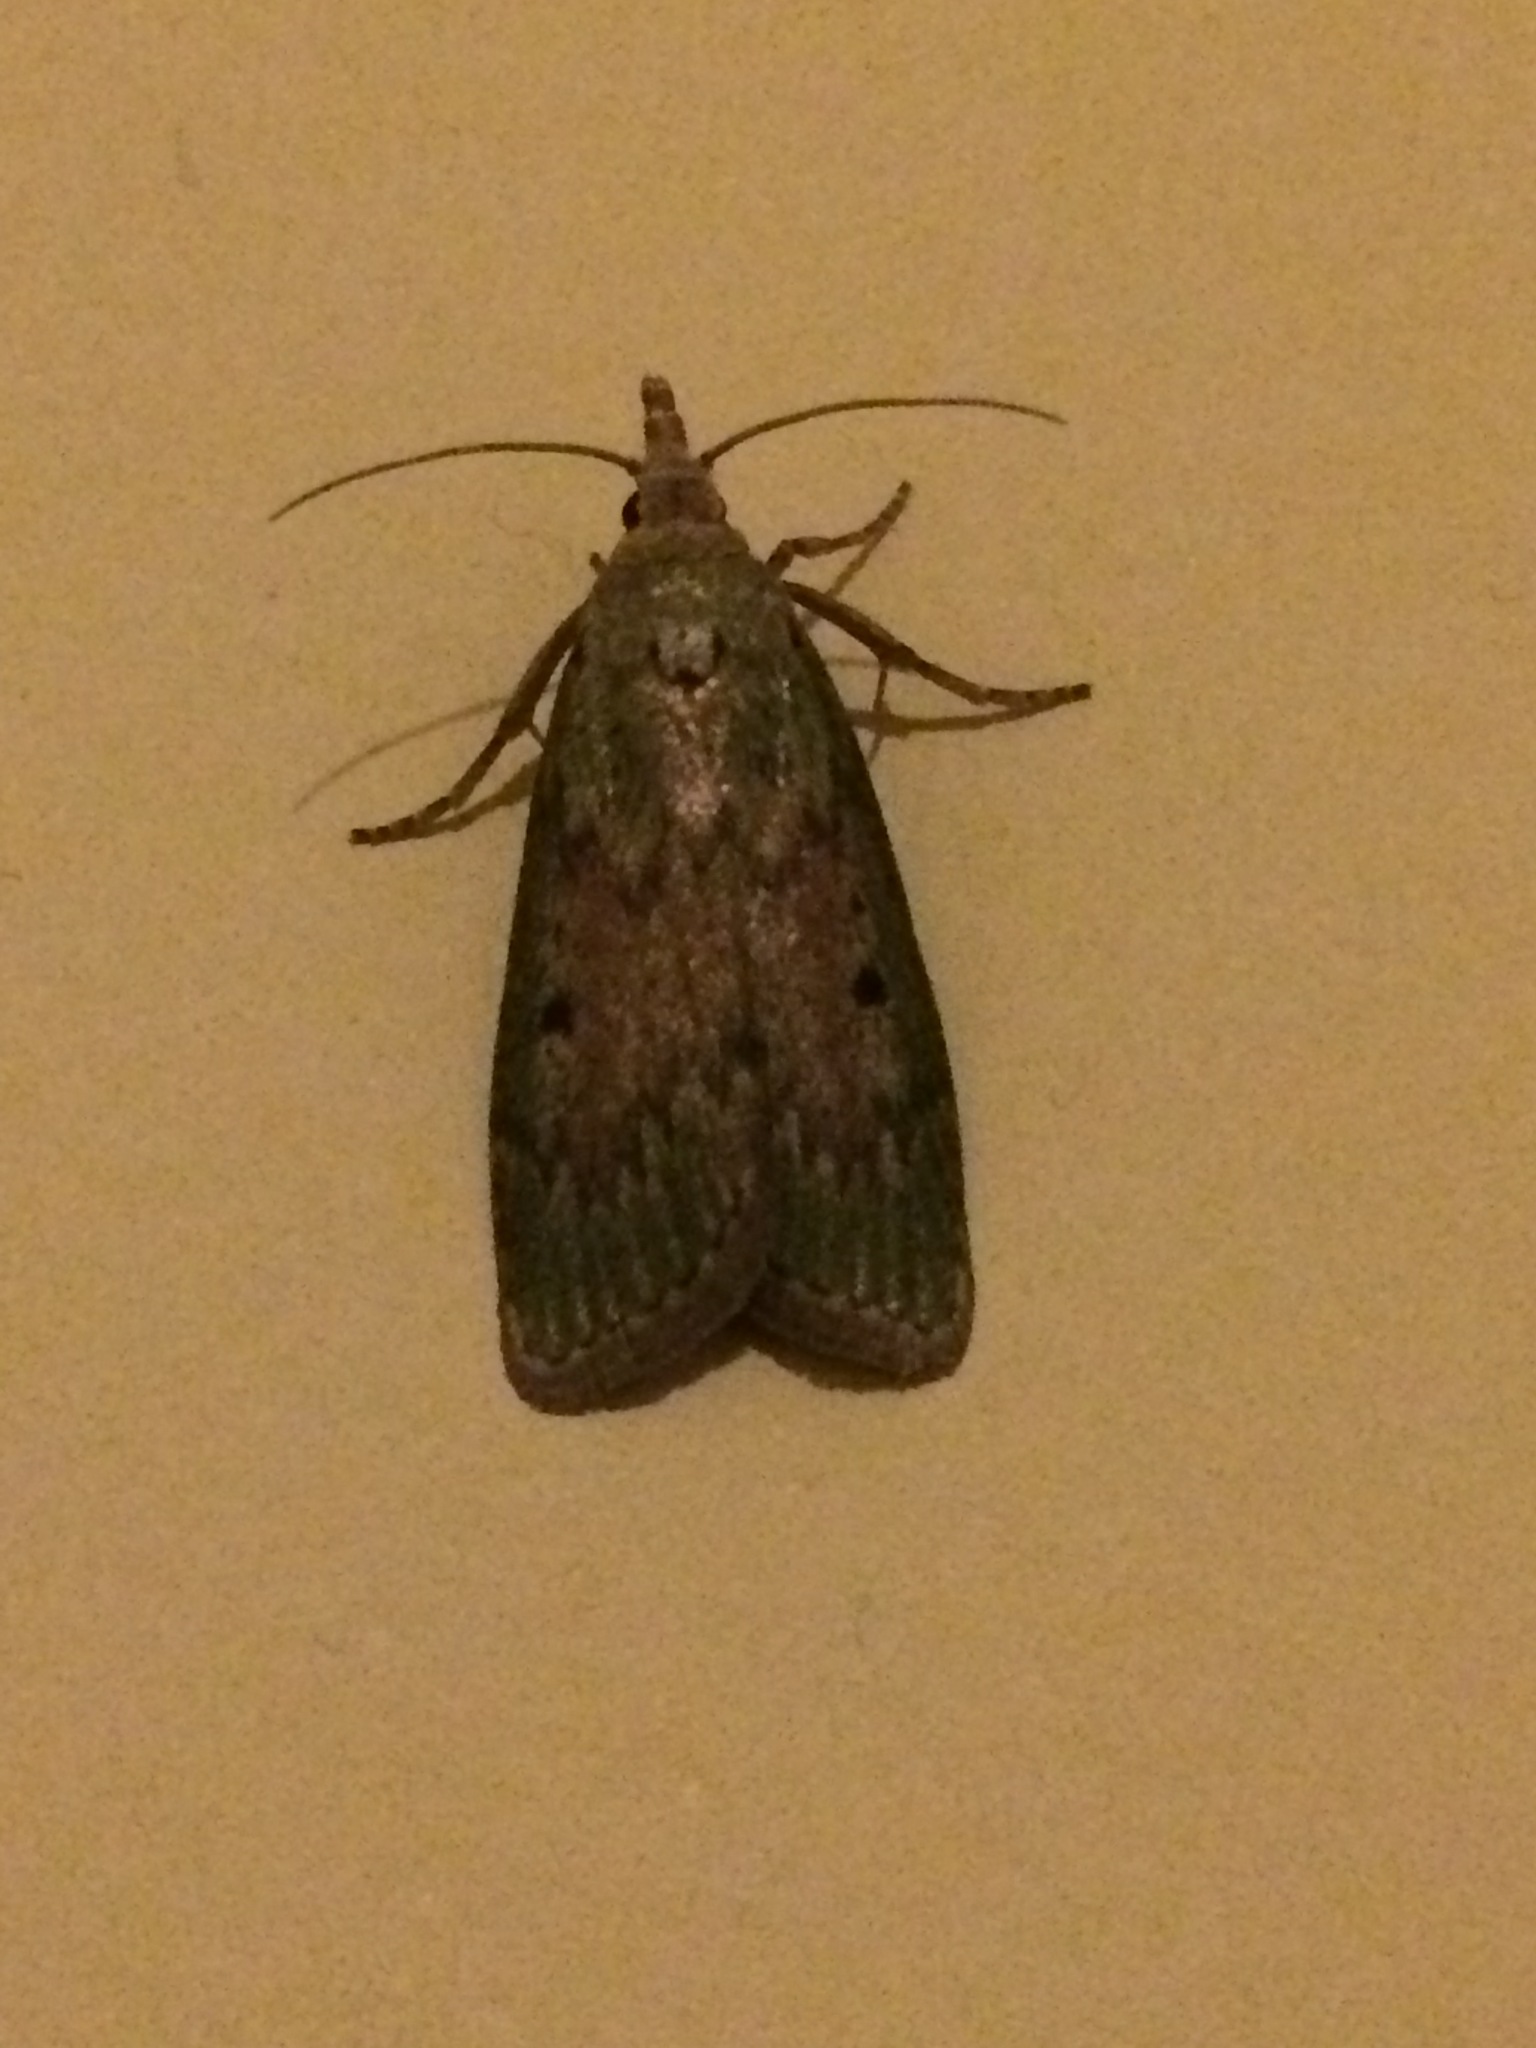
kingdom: Animalia
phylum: Arthropoda
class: Insecta
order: Lepidoptera
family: Pyralidae
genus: Aphomia
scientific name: Aphomia sociella
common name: Bee moth
